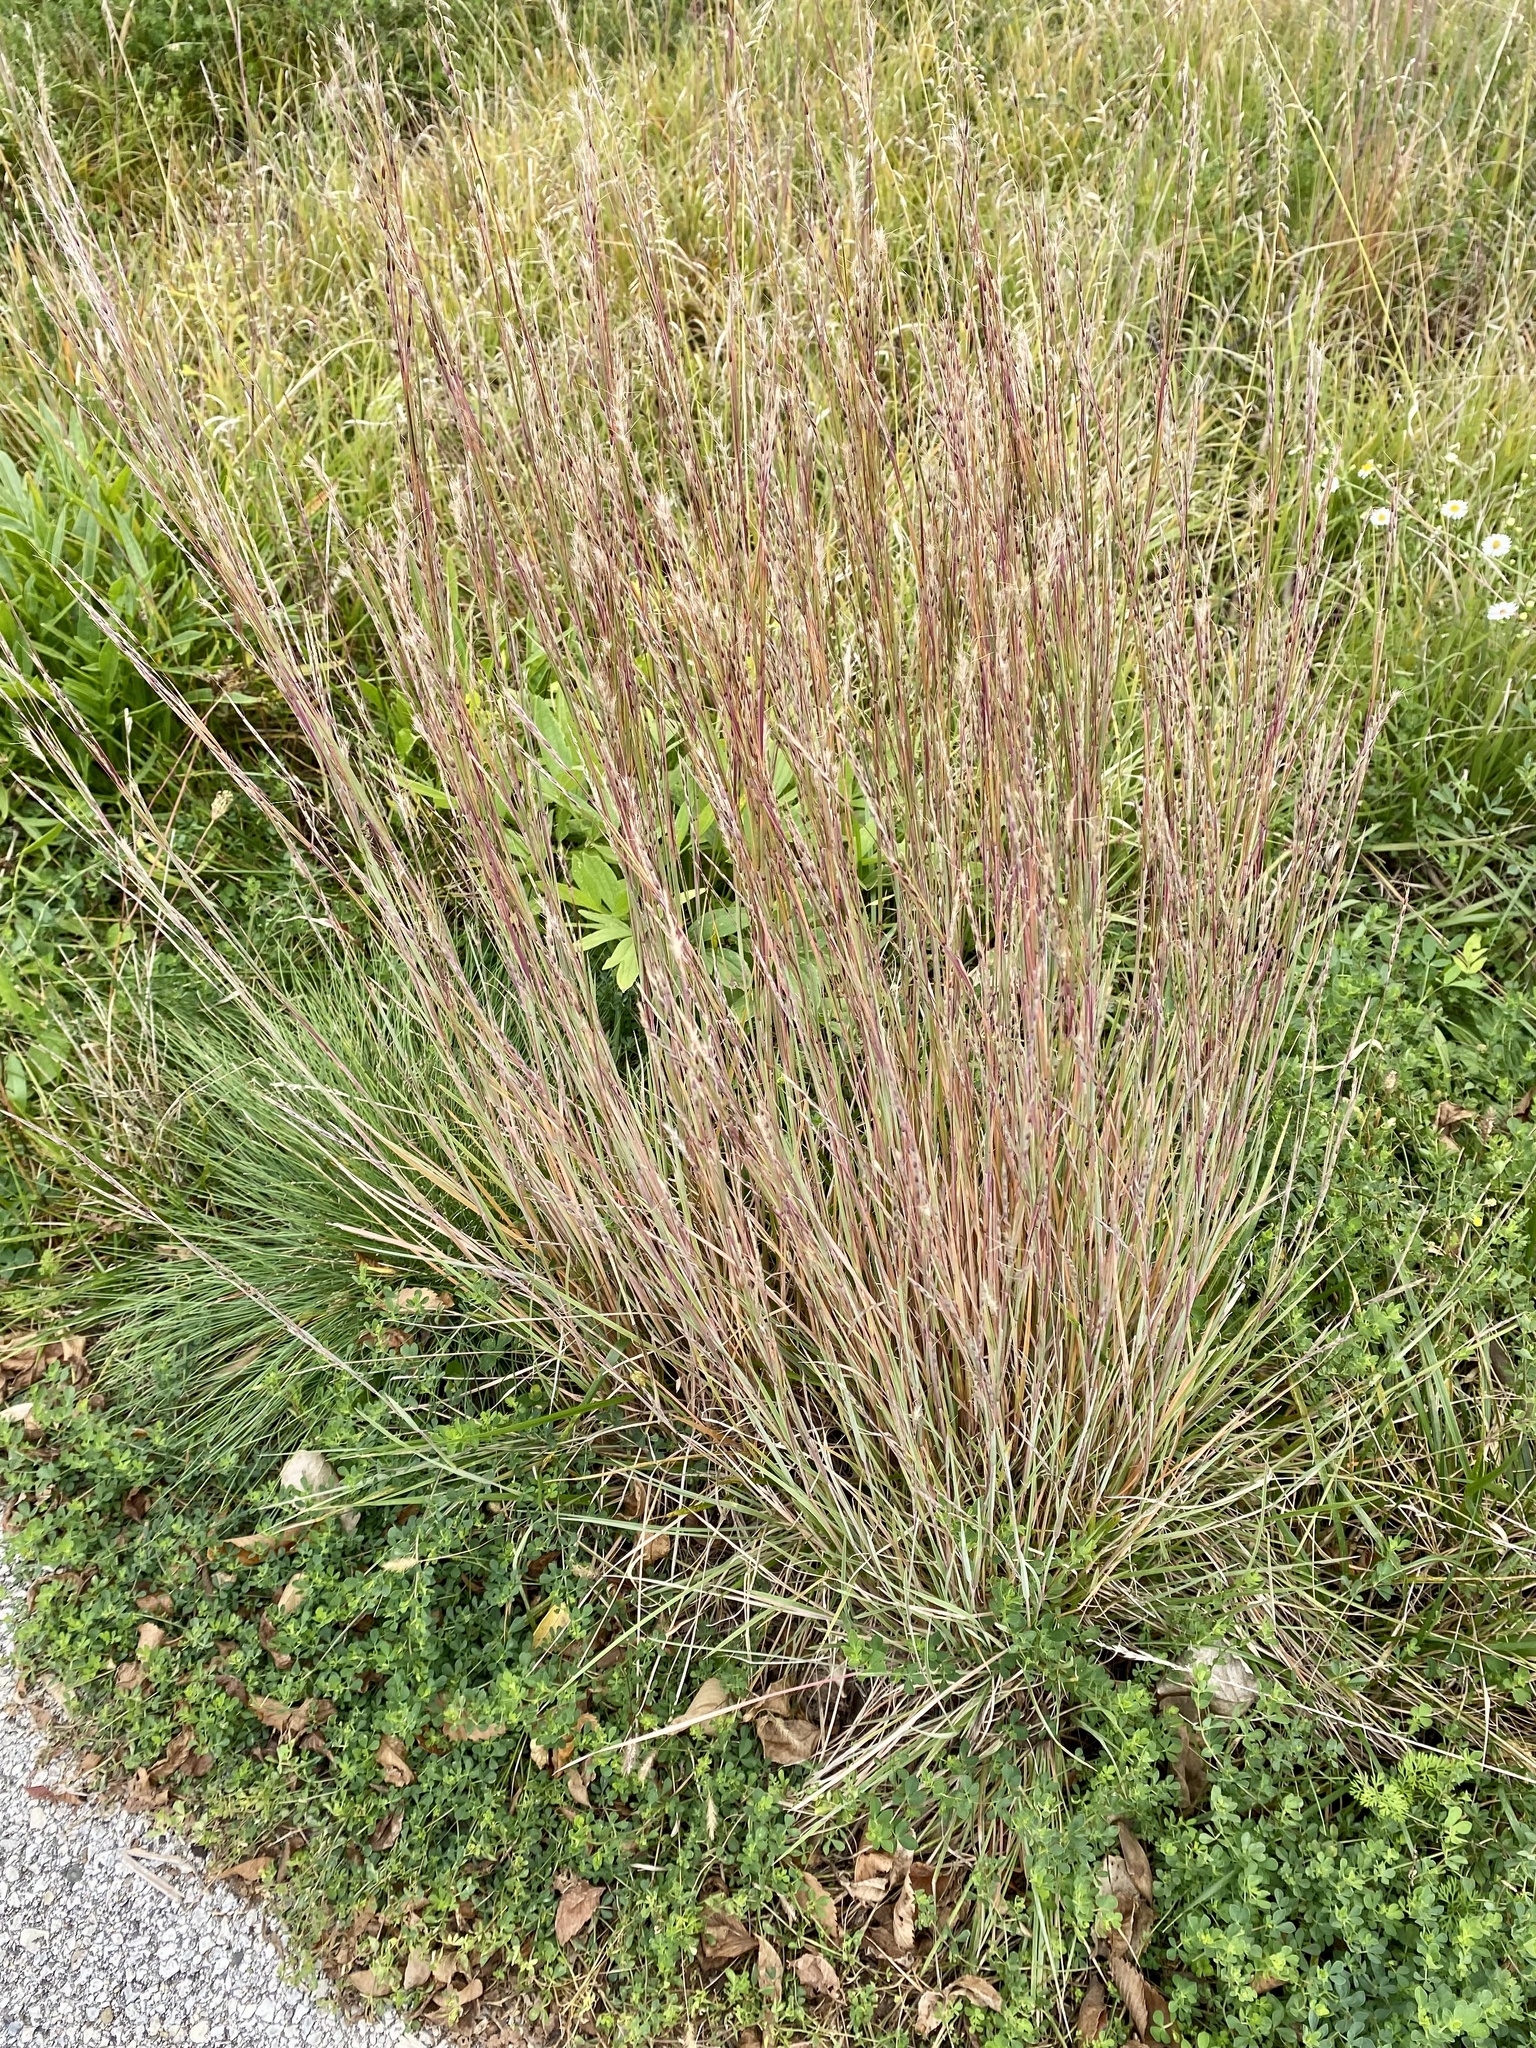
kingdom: Plantae
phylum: Tracheophyta
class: Liliopsida
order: Poales
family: Poaceae
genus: Schizachyrium
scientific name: Schizachyrium scoparium
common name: Little bluestem
